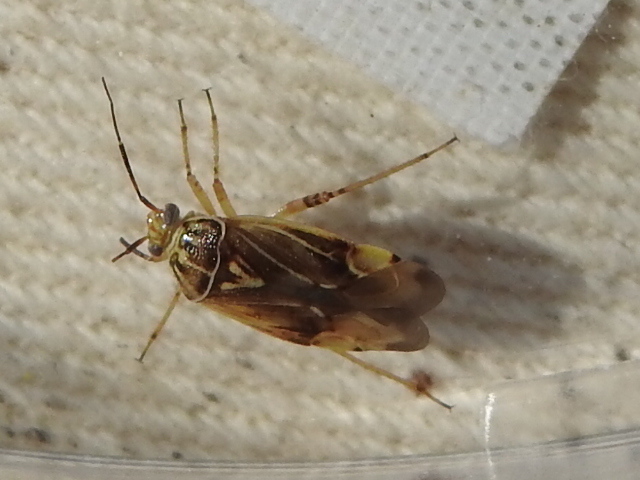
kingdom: Animalia
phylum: Arthropoda
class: Insecta
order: Hemiptera
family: Miridae
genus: Lygus
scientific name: Lygus lineolaris
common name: North american tarnished plant bug
